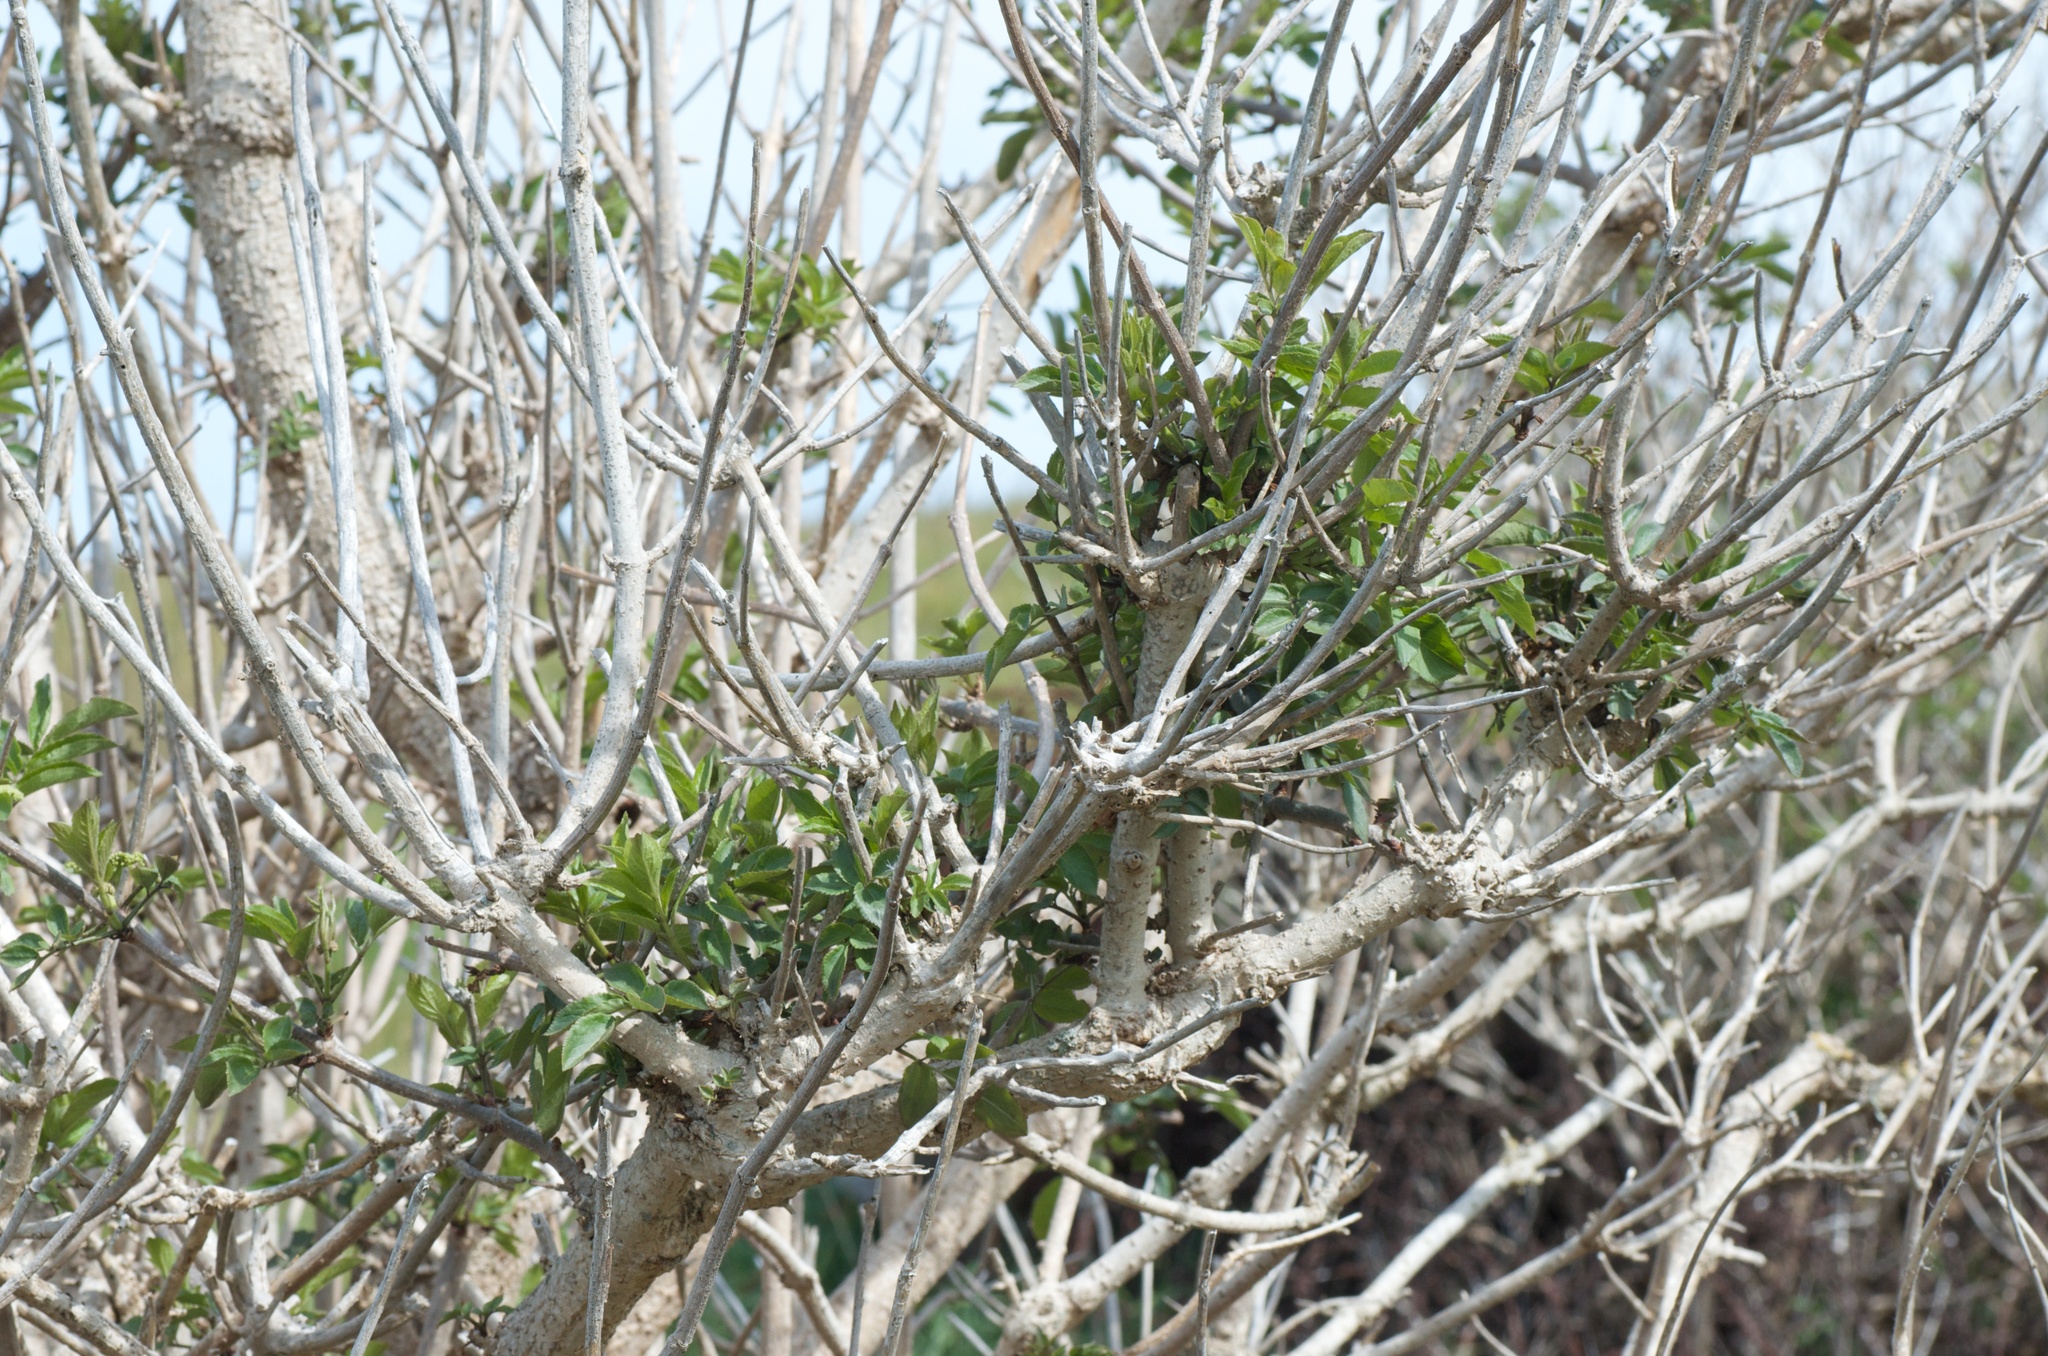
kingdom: Plantae
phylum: Tracheophyta
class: Magnoliopsida
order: Dipsacales
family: Viburnaceae
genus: Sambucus
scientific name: Sambucus nigra
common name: Elder
